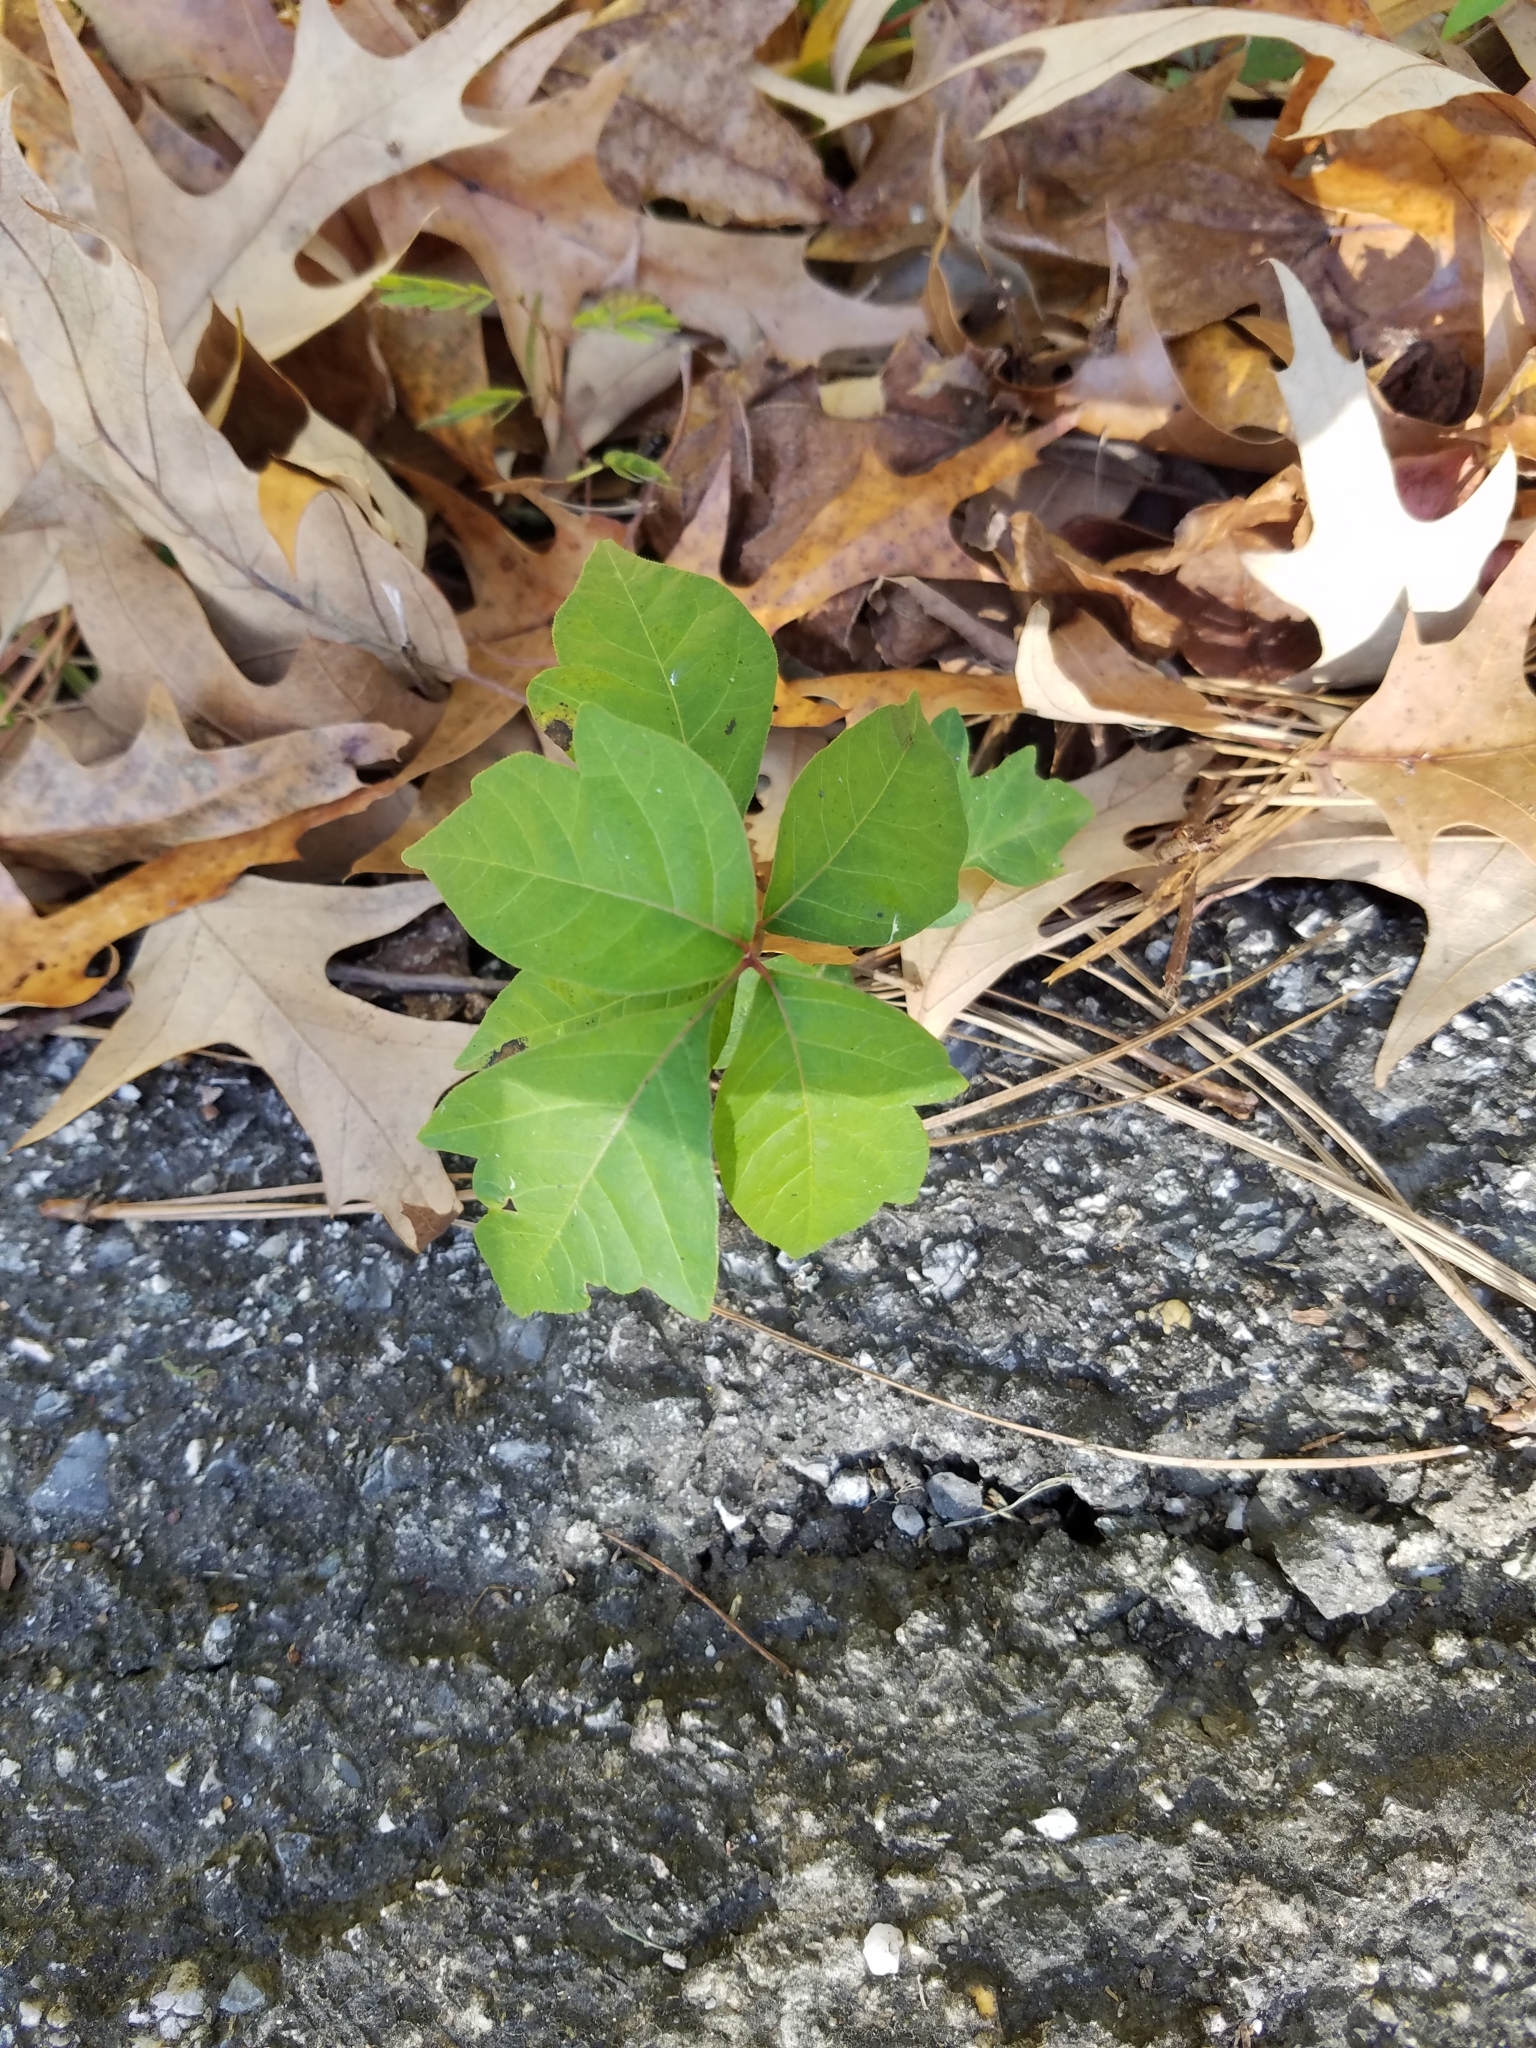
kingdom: Plantae
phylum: Tracheophyta
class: Magnoliopsida
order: Sapindales
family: Anacardiaceae
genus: Toxicodendron
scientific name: Toxicodendron radicans
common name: Poison ivy
